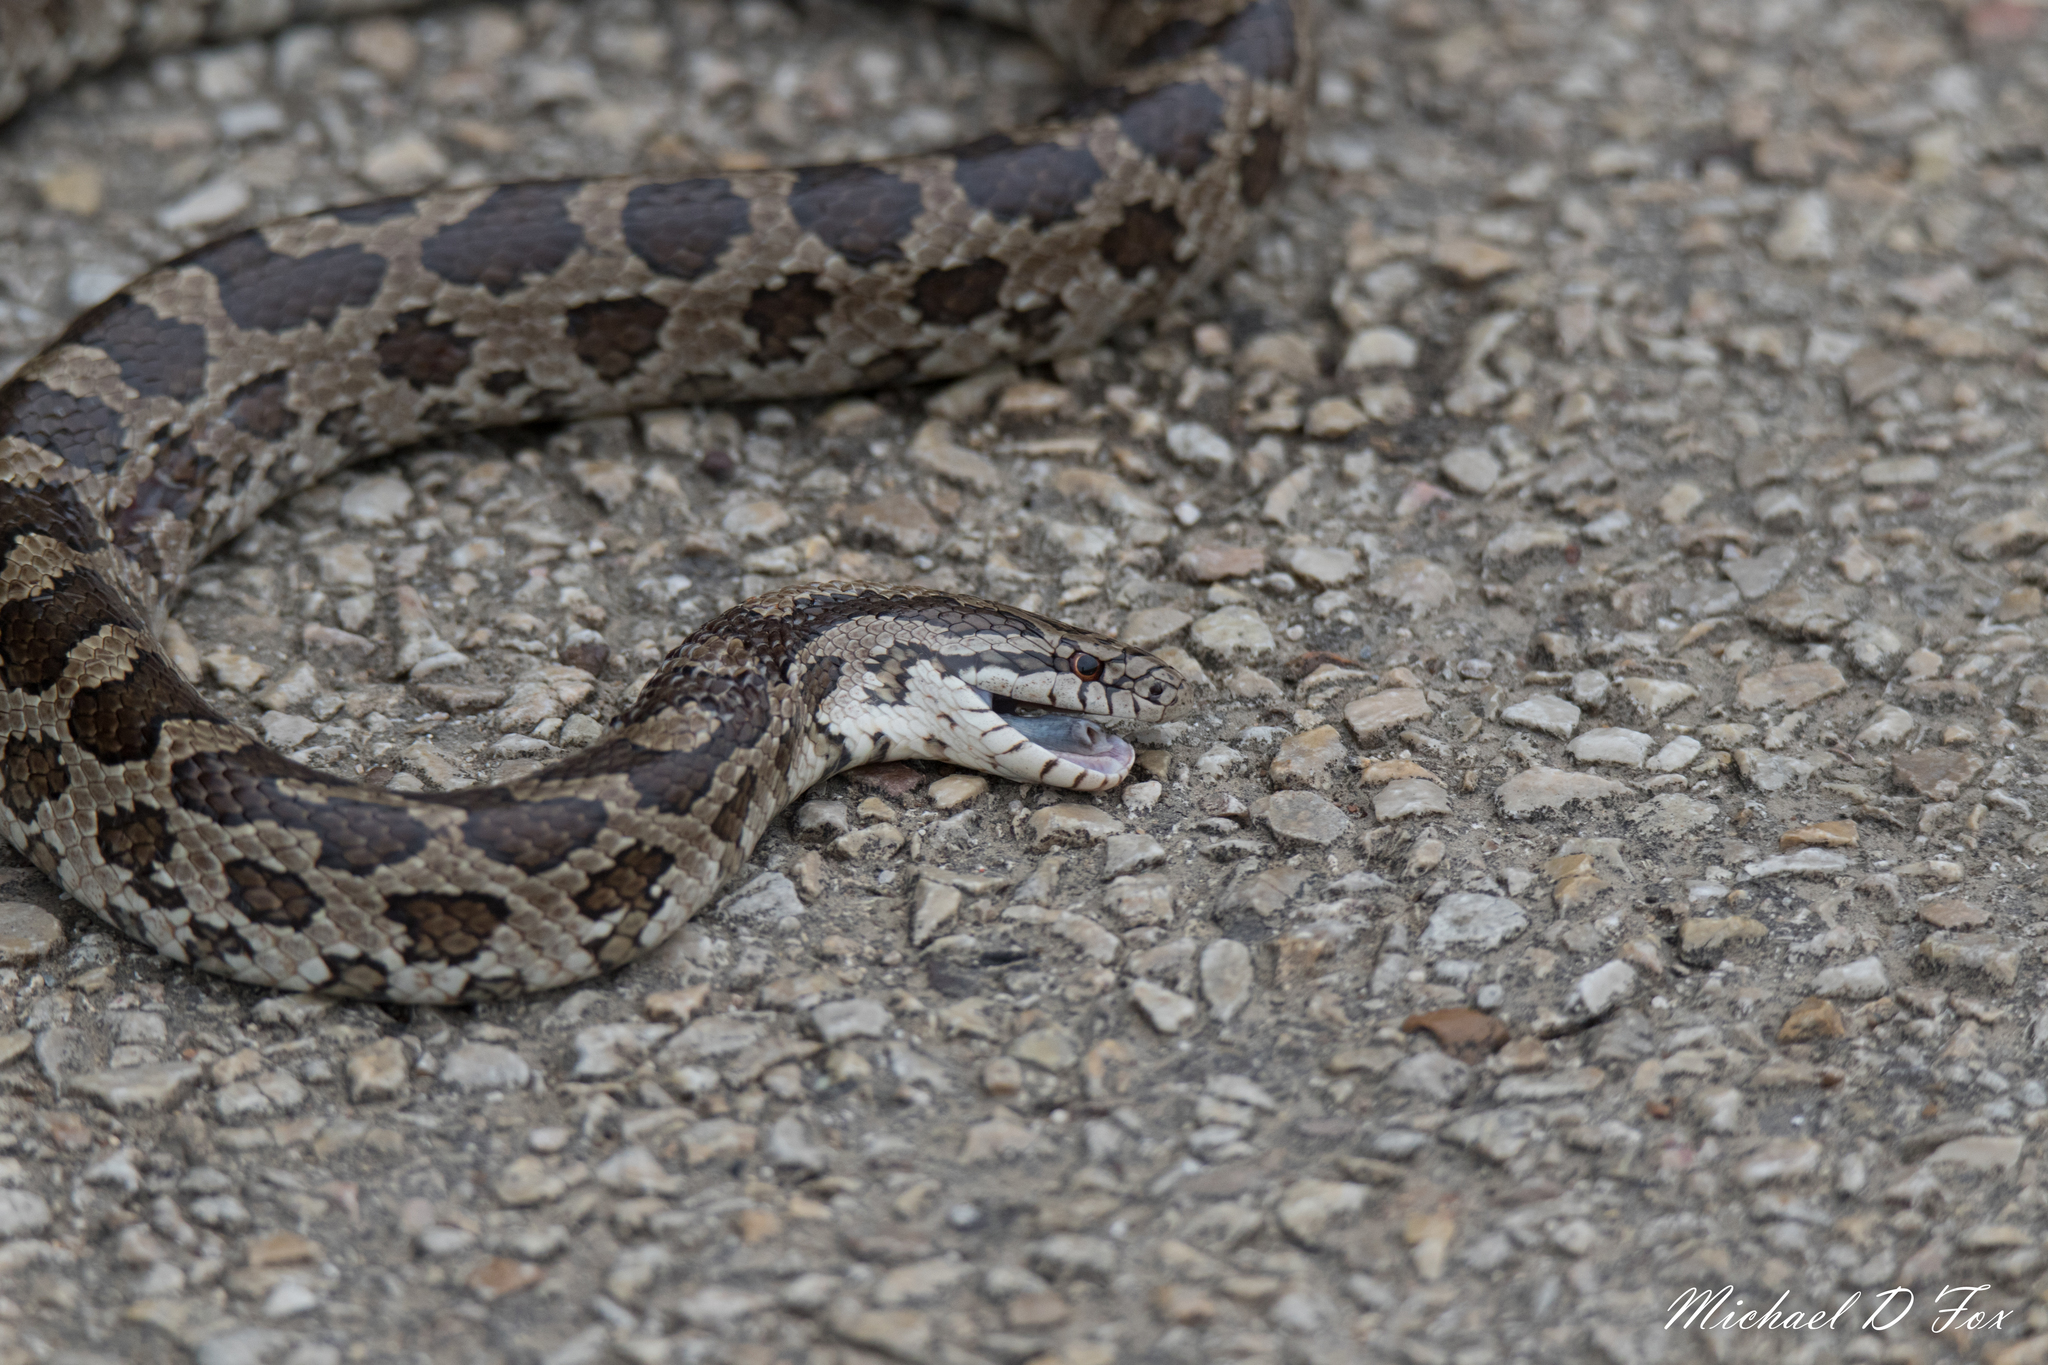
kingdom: Animalia
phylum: Chordata
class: Squamata
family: Colubridae
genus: Lampropeltis
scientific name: Lampropeltis calligaster
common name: Prairie kingsnake
